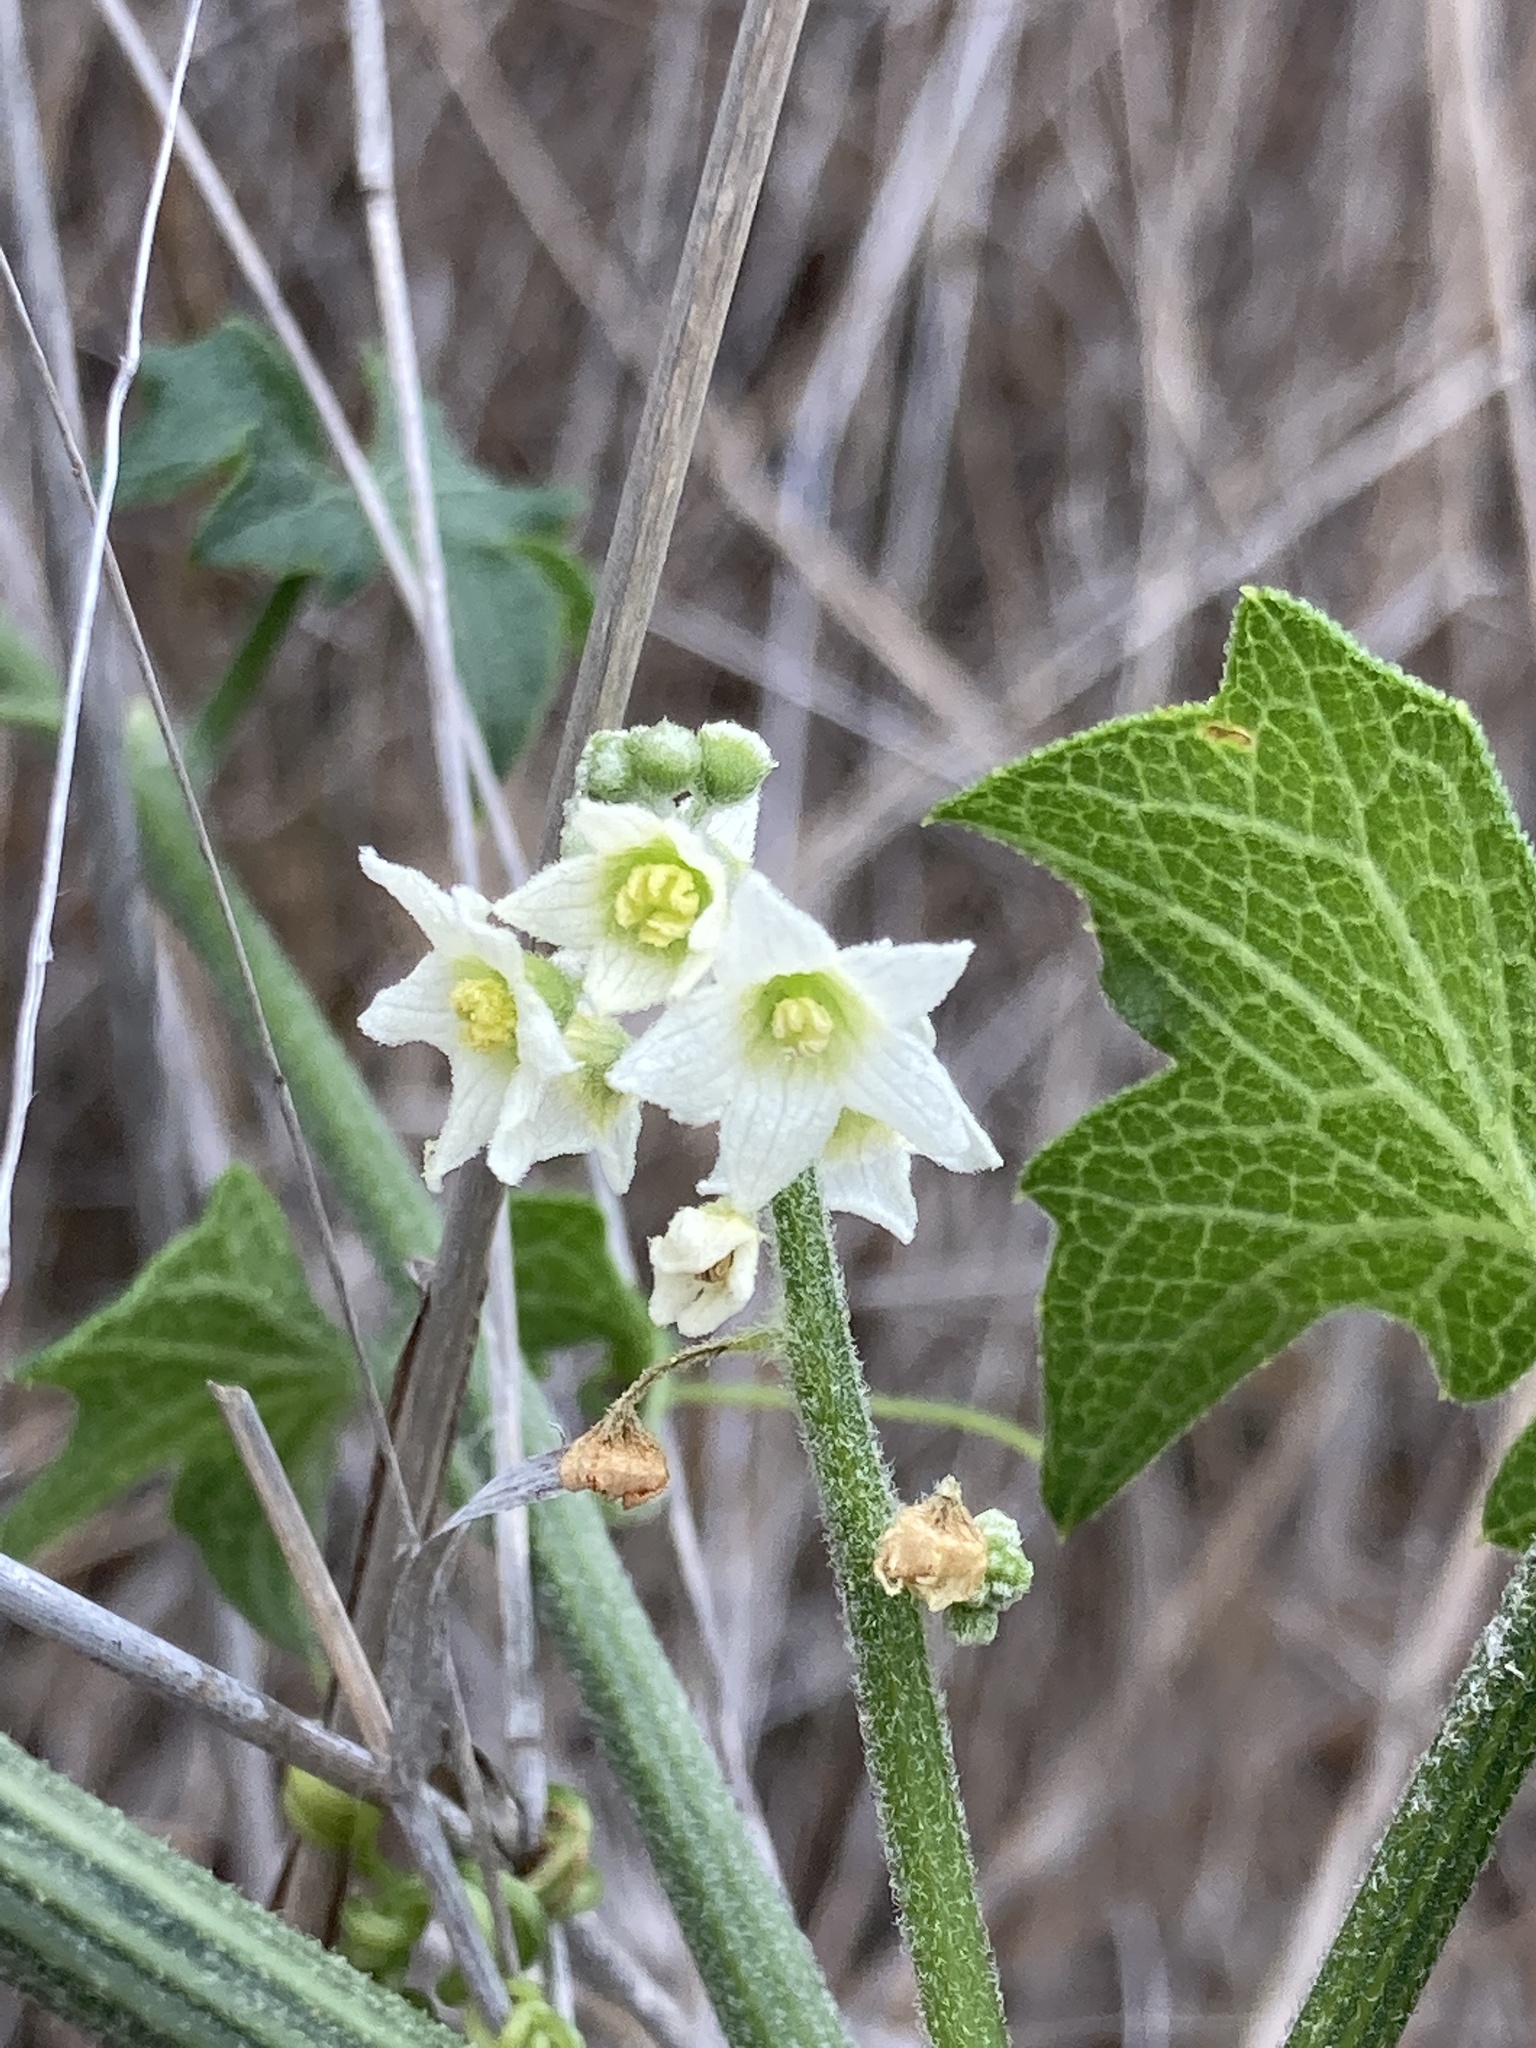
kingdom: Plantae
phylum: Tracheophyta
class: Magnoliopsida
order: Cucurbitales
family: Cucurbitaceae
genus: Marah
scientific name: Marah macrocarpa
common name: Cucamonga manroot
